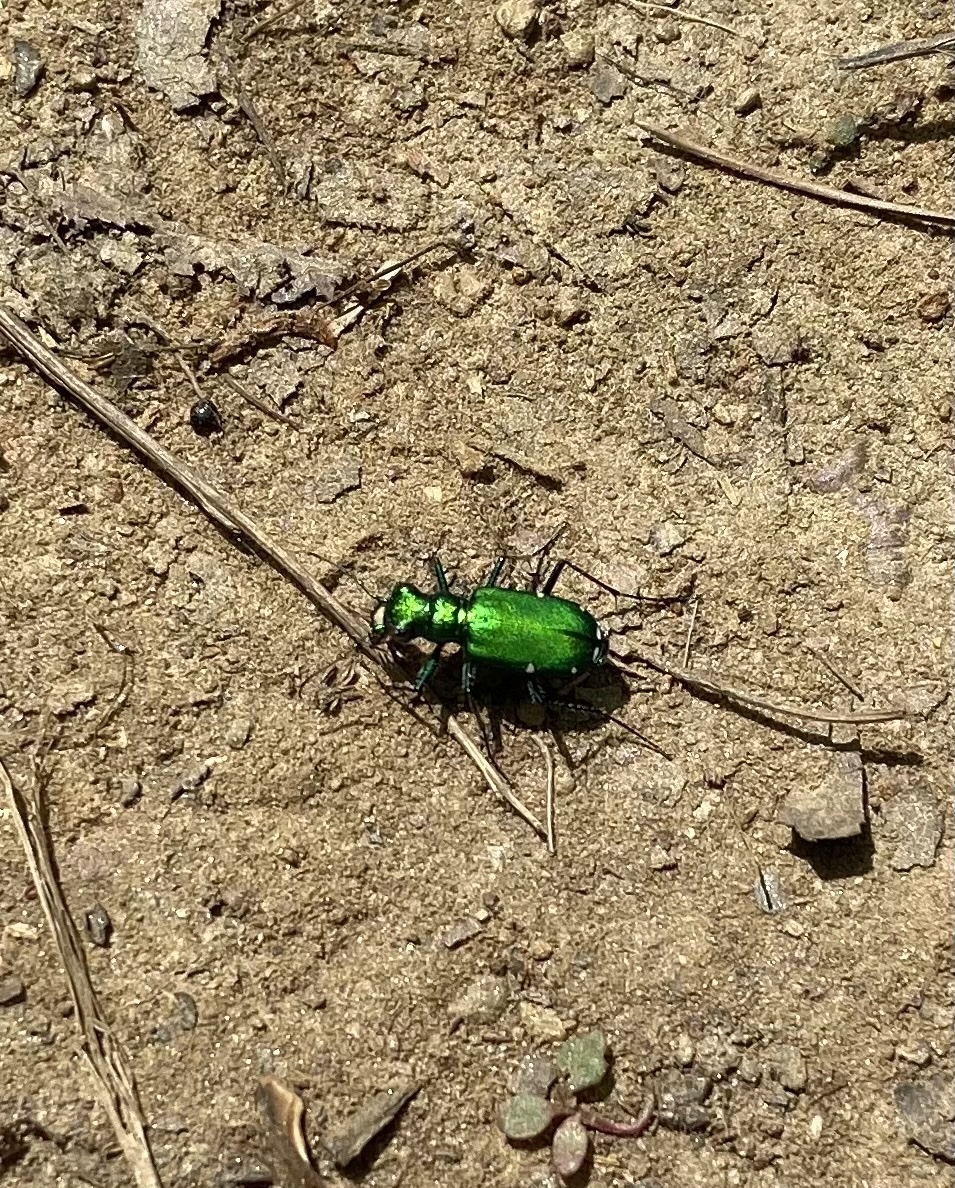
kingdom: Animalia
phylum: Arthropoda
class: Insecta
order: Coleoptera
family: Carabidae
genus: Cicindela
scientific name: Cicindela sexguttata
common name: Six-spotted tiger beetle
